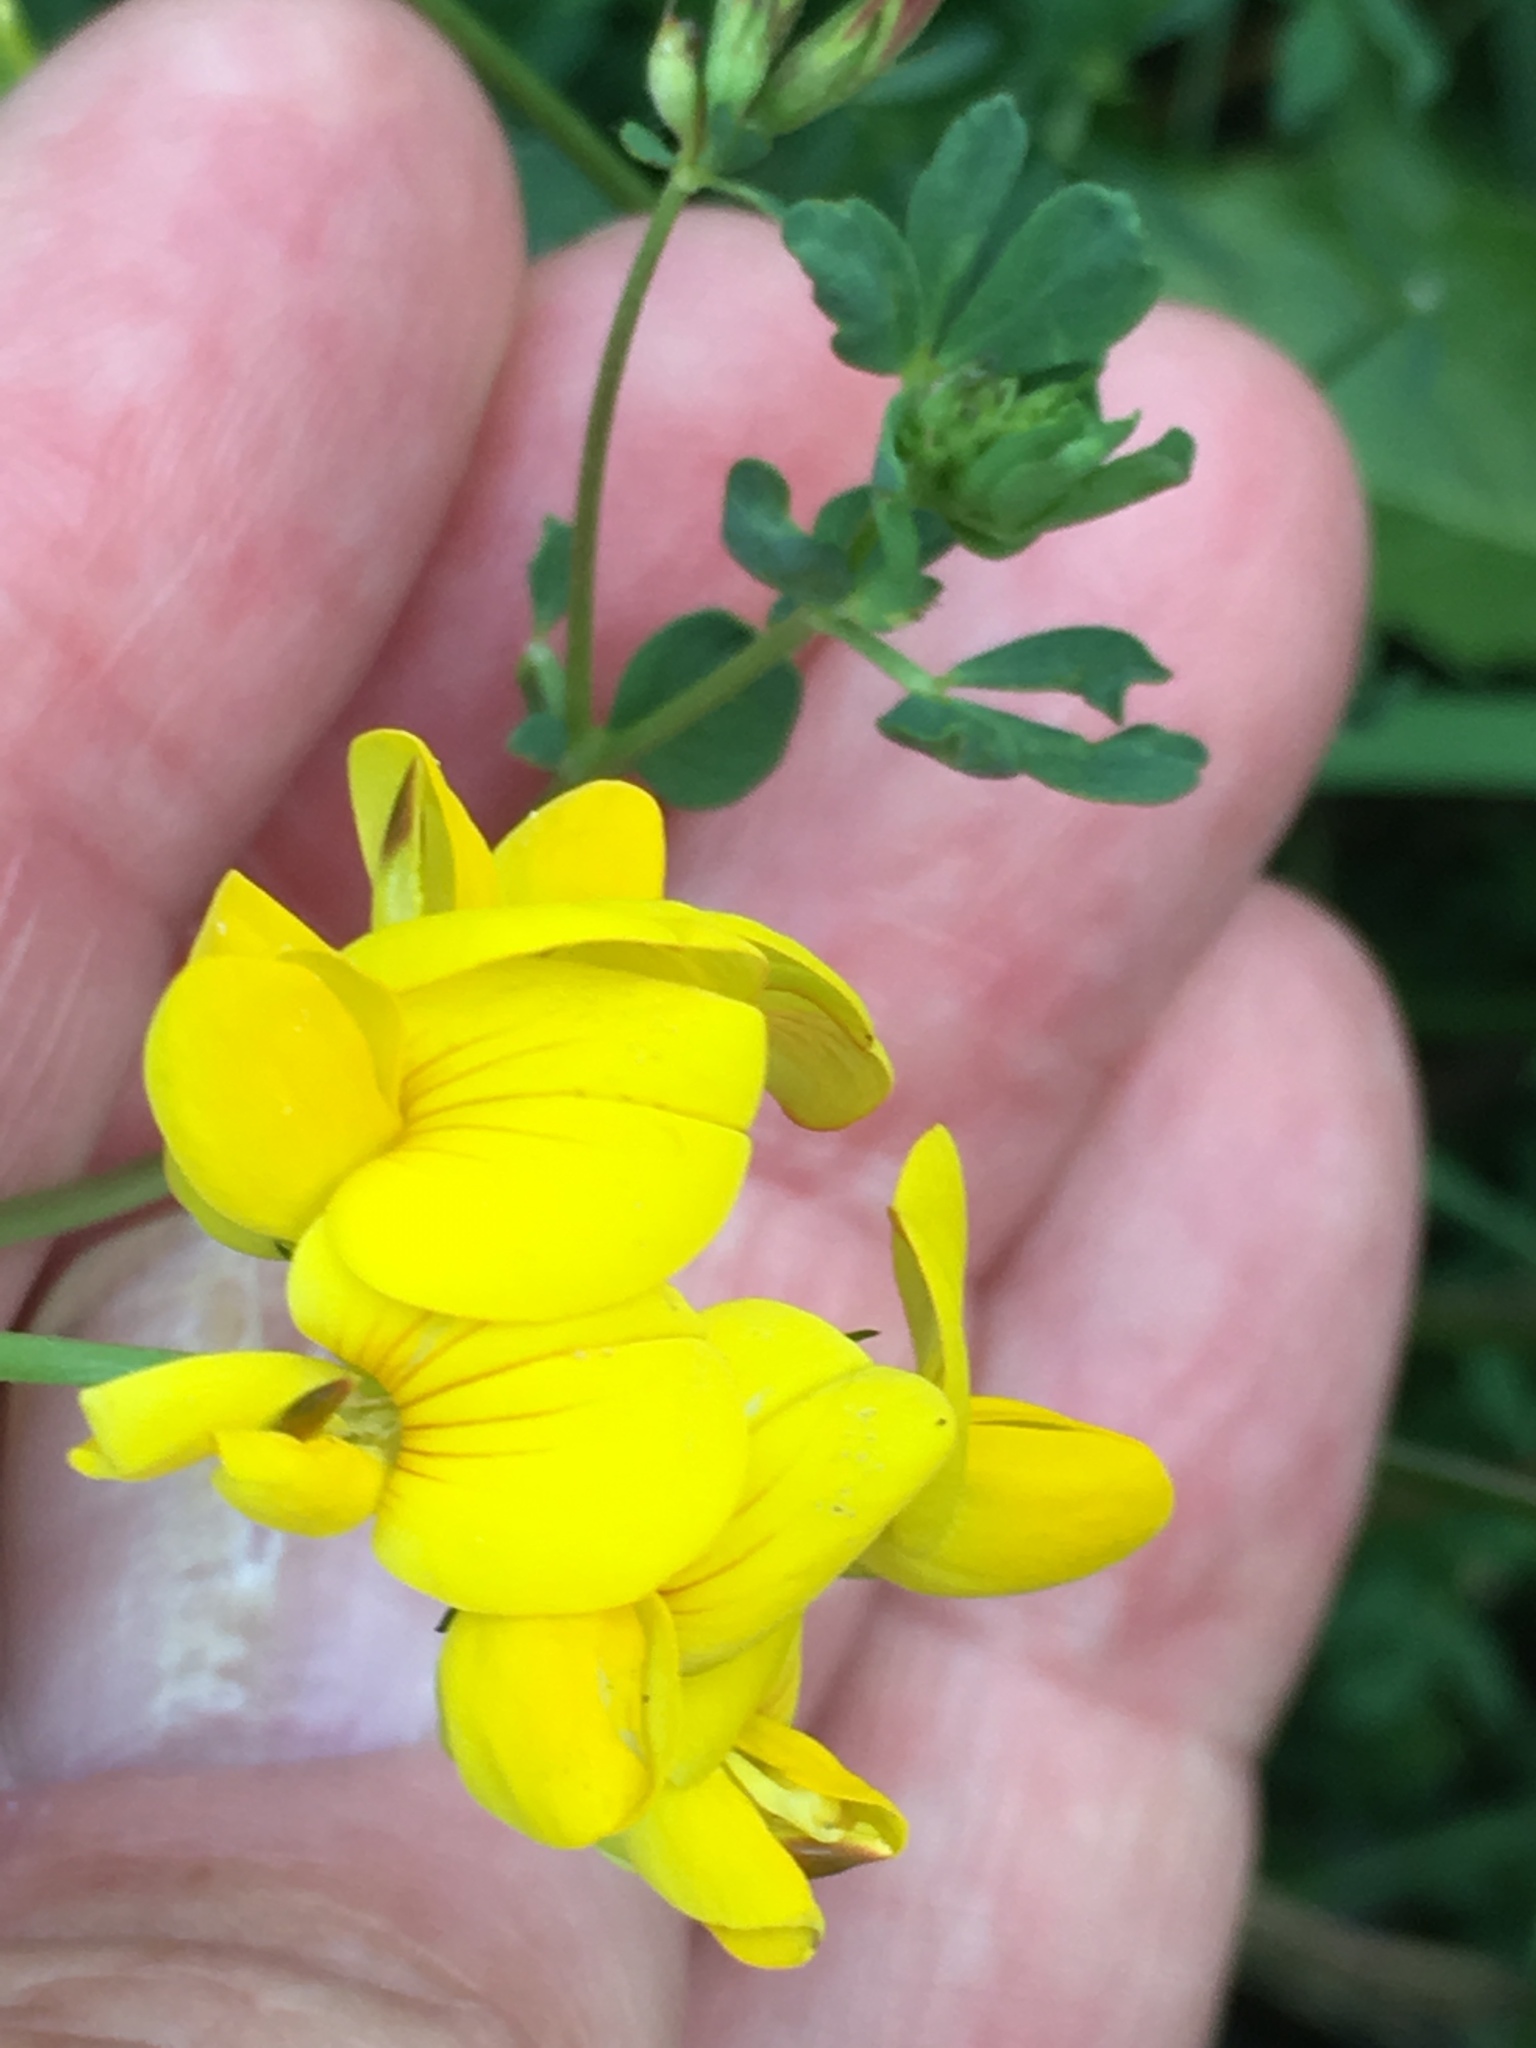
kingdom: Plantae
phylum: Tracheophyta
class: Magnoliopsida
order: Fabales
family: Fabaceae
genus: Lotus
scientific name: Lotus corniculatus
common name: Common bird's-foot-trefoil
